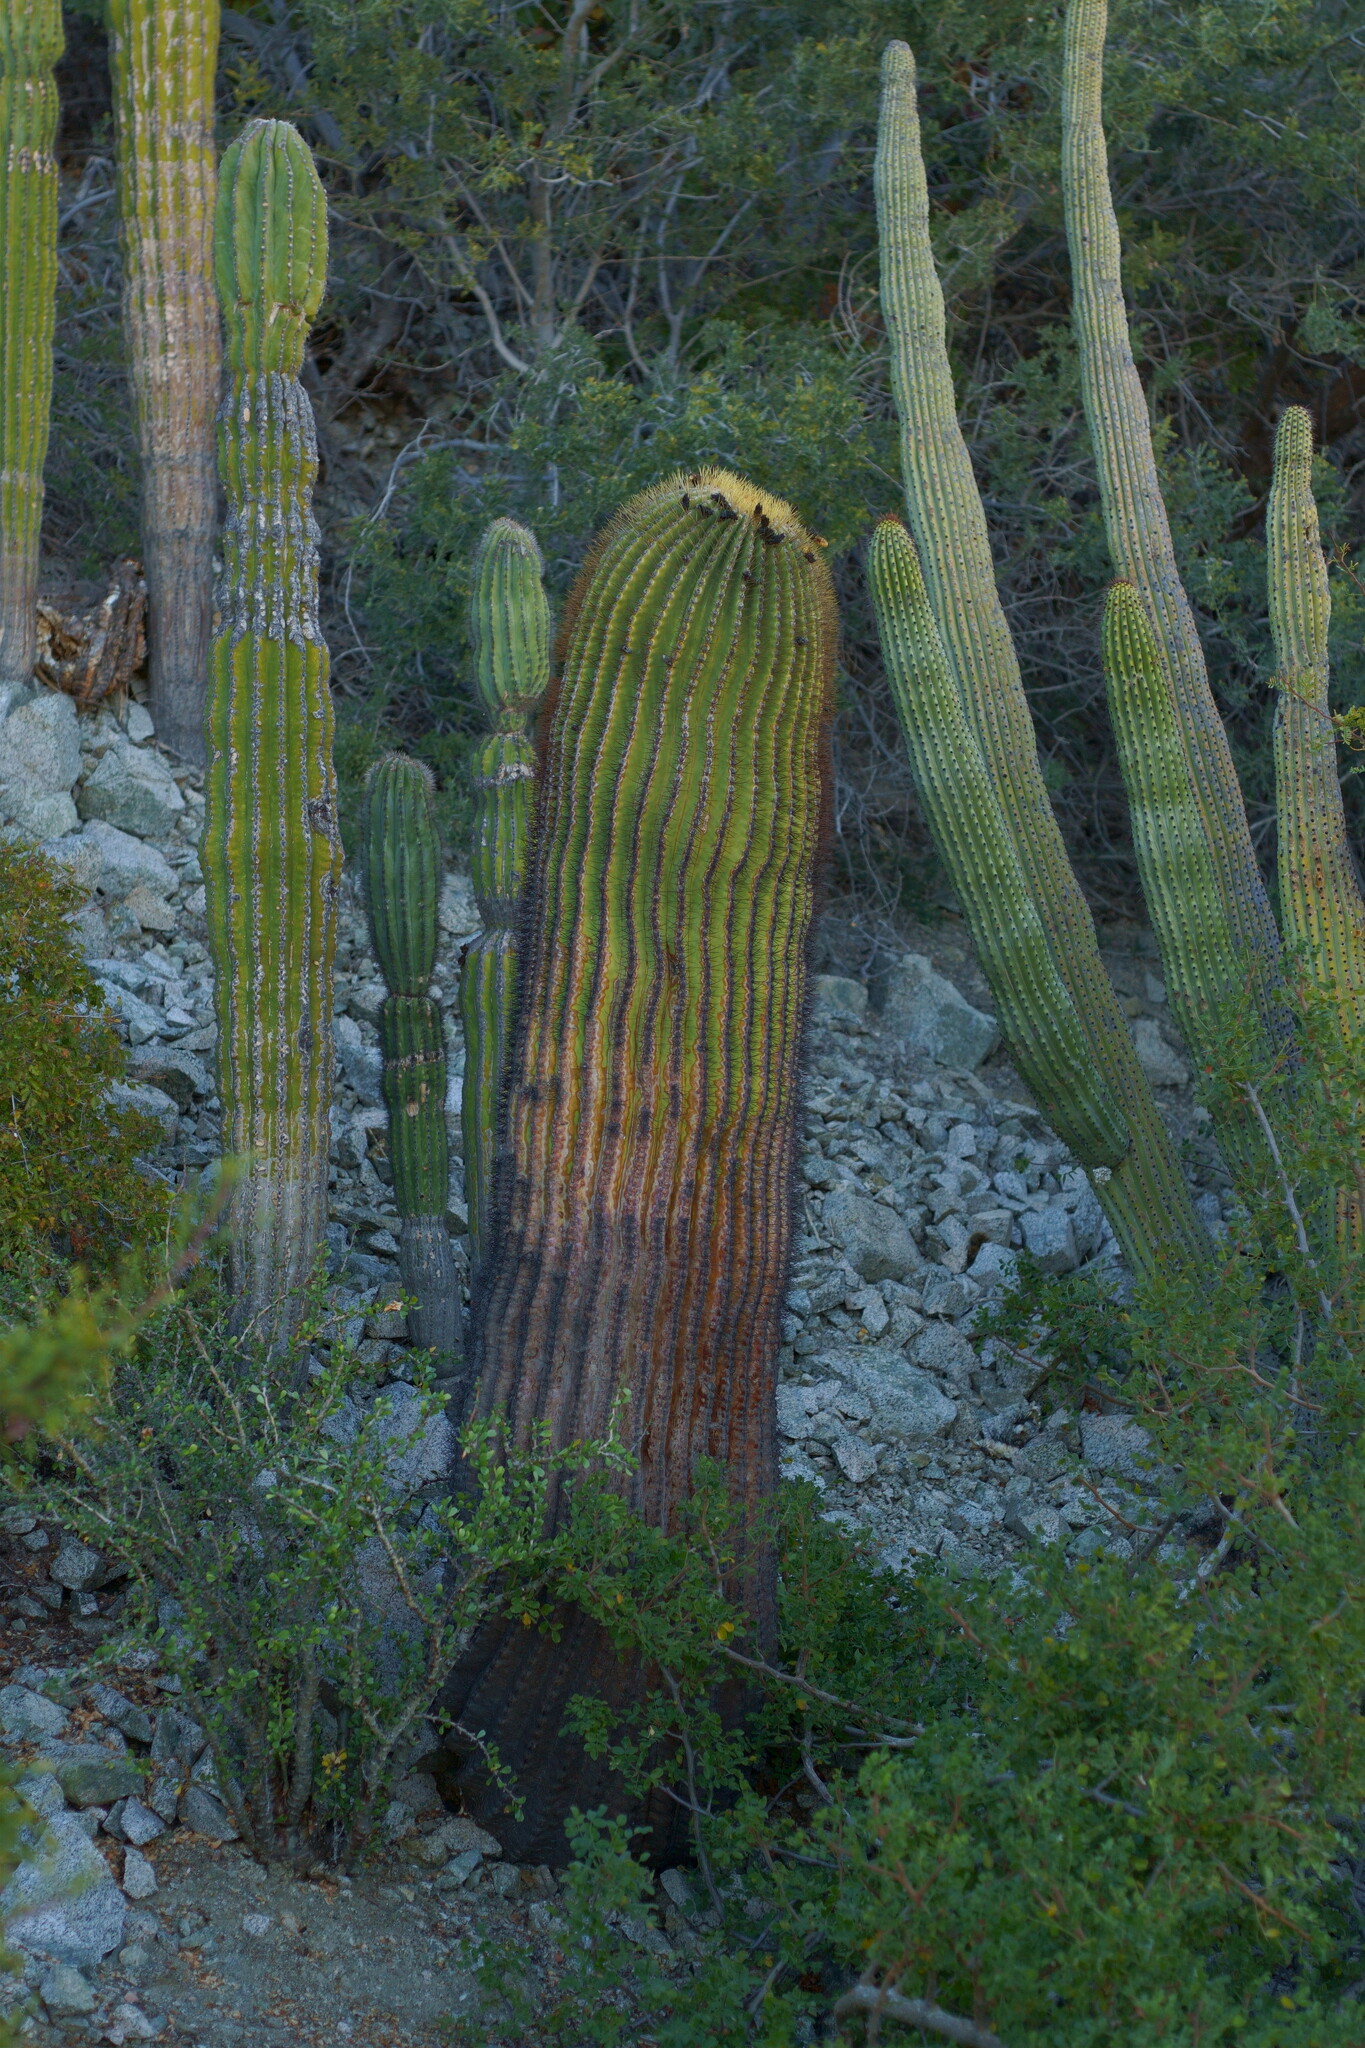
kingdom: Plantae
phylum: Tracheophyta
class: Magnoliopsida
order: Caryophyllales
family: Cactaceae
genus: Ferocactus
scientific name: Ferocactus diguetii
